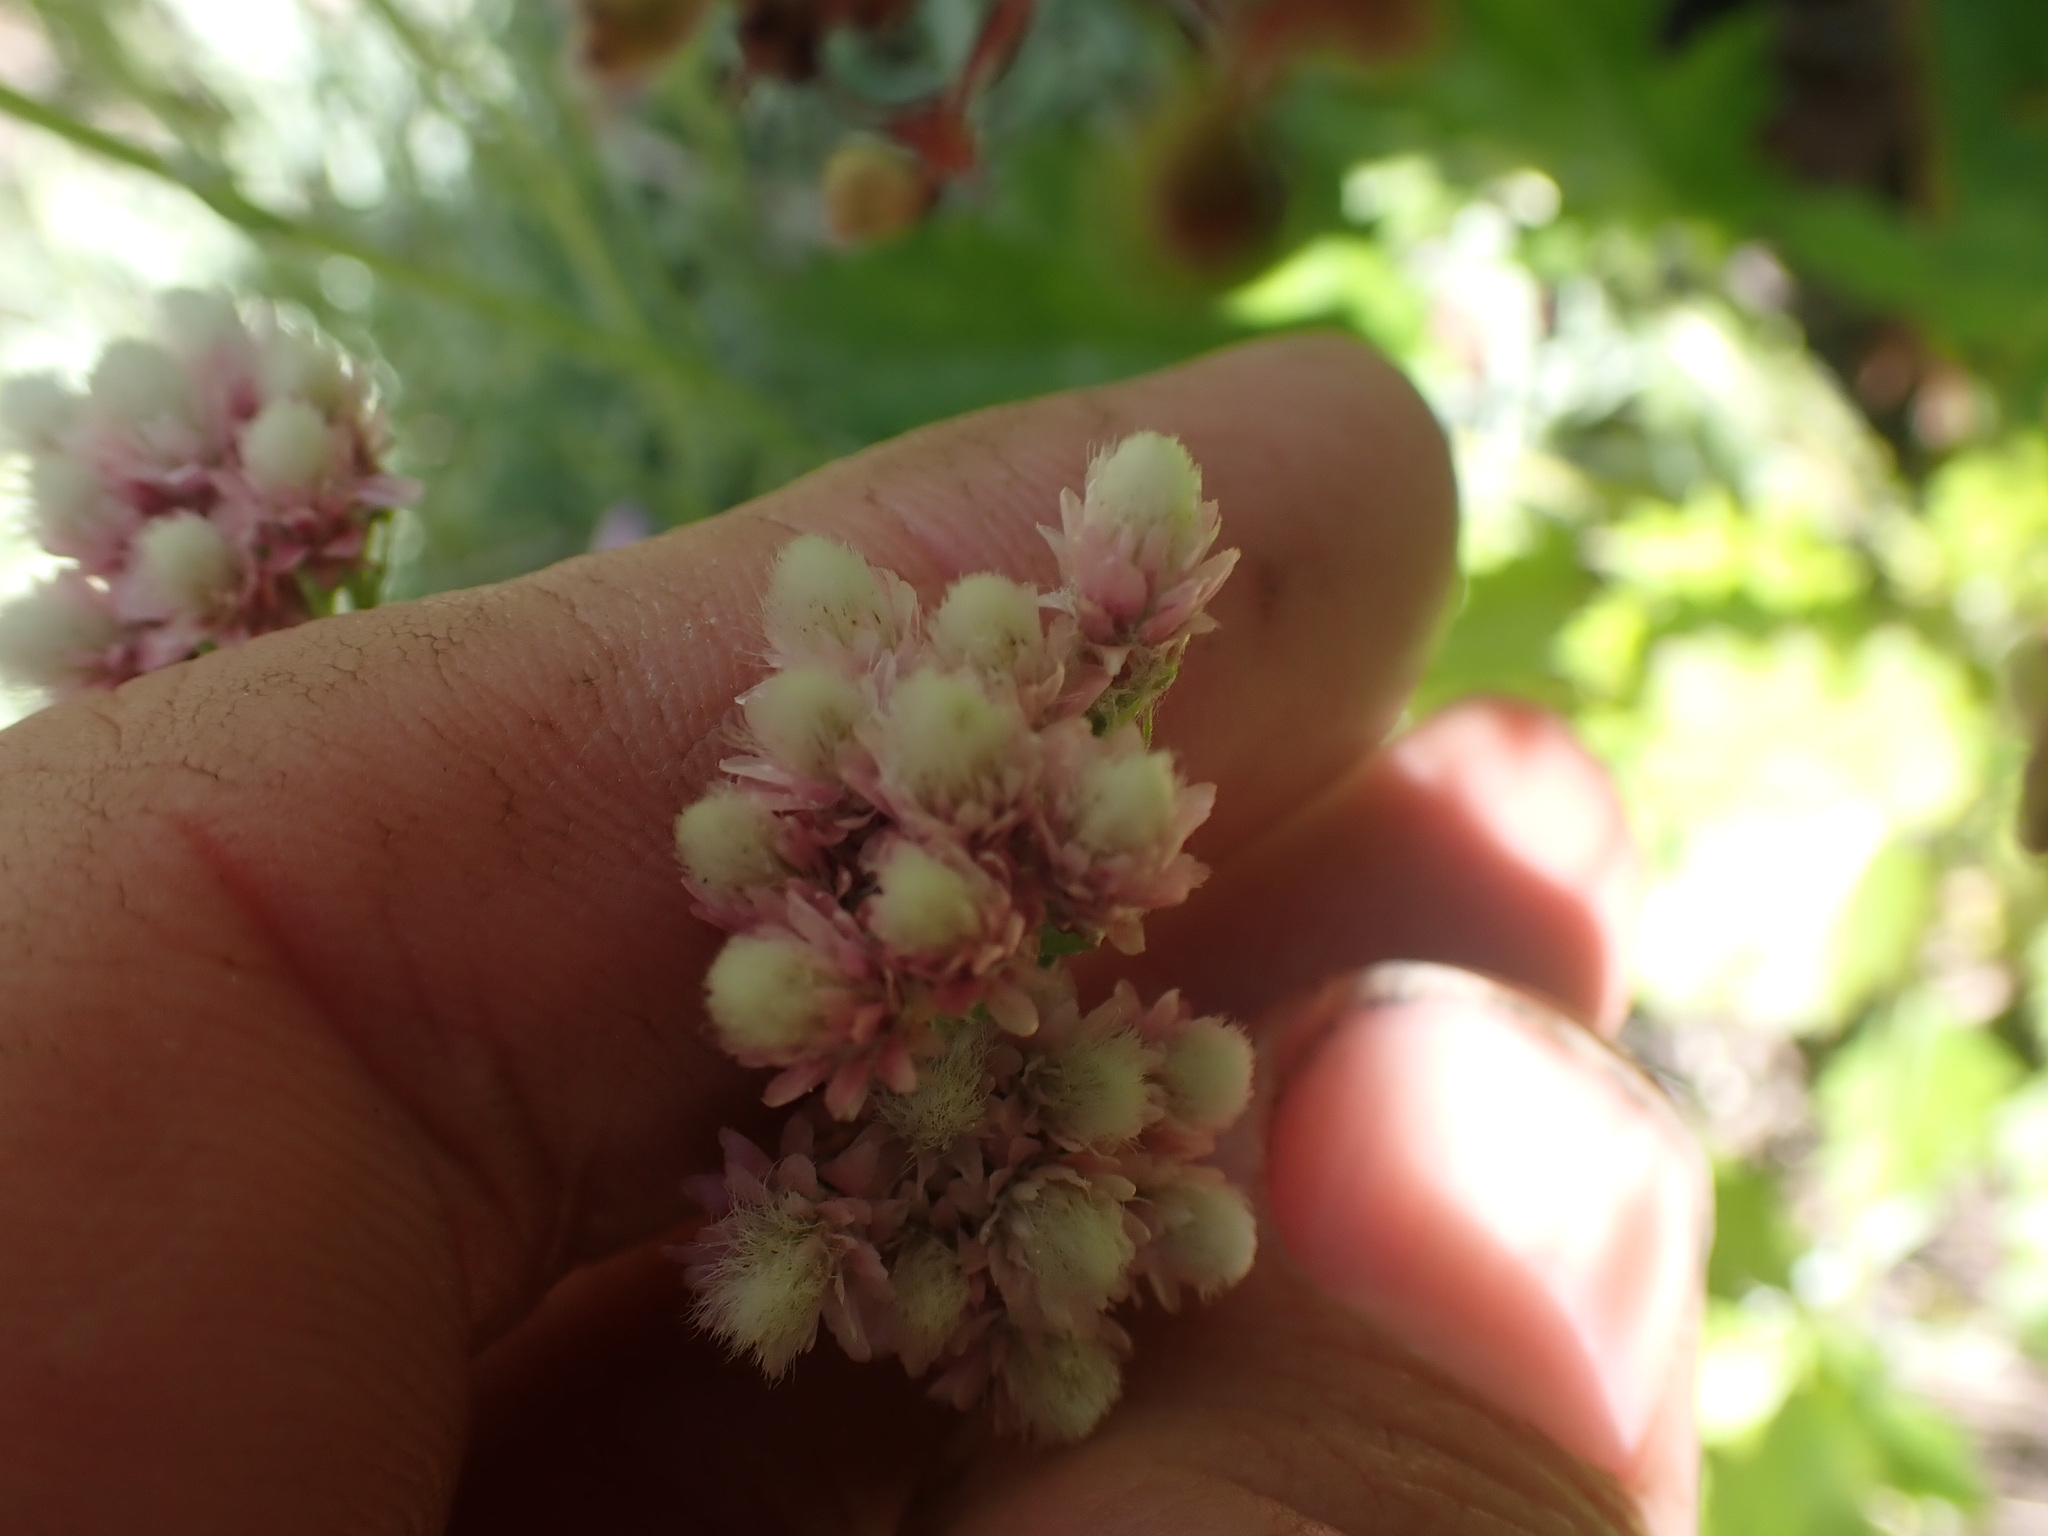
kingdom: Plantae
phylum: Tracheophyta
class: Magnoliopsida
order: Asterales
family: Asteraceae
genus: Antennaria
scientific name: Antennaria rosea
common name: Rosy pussytoes
